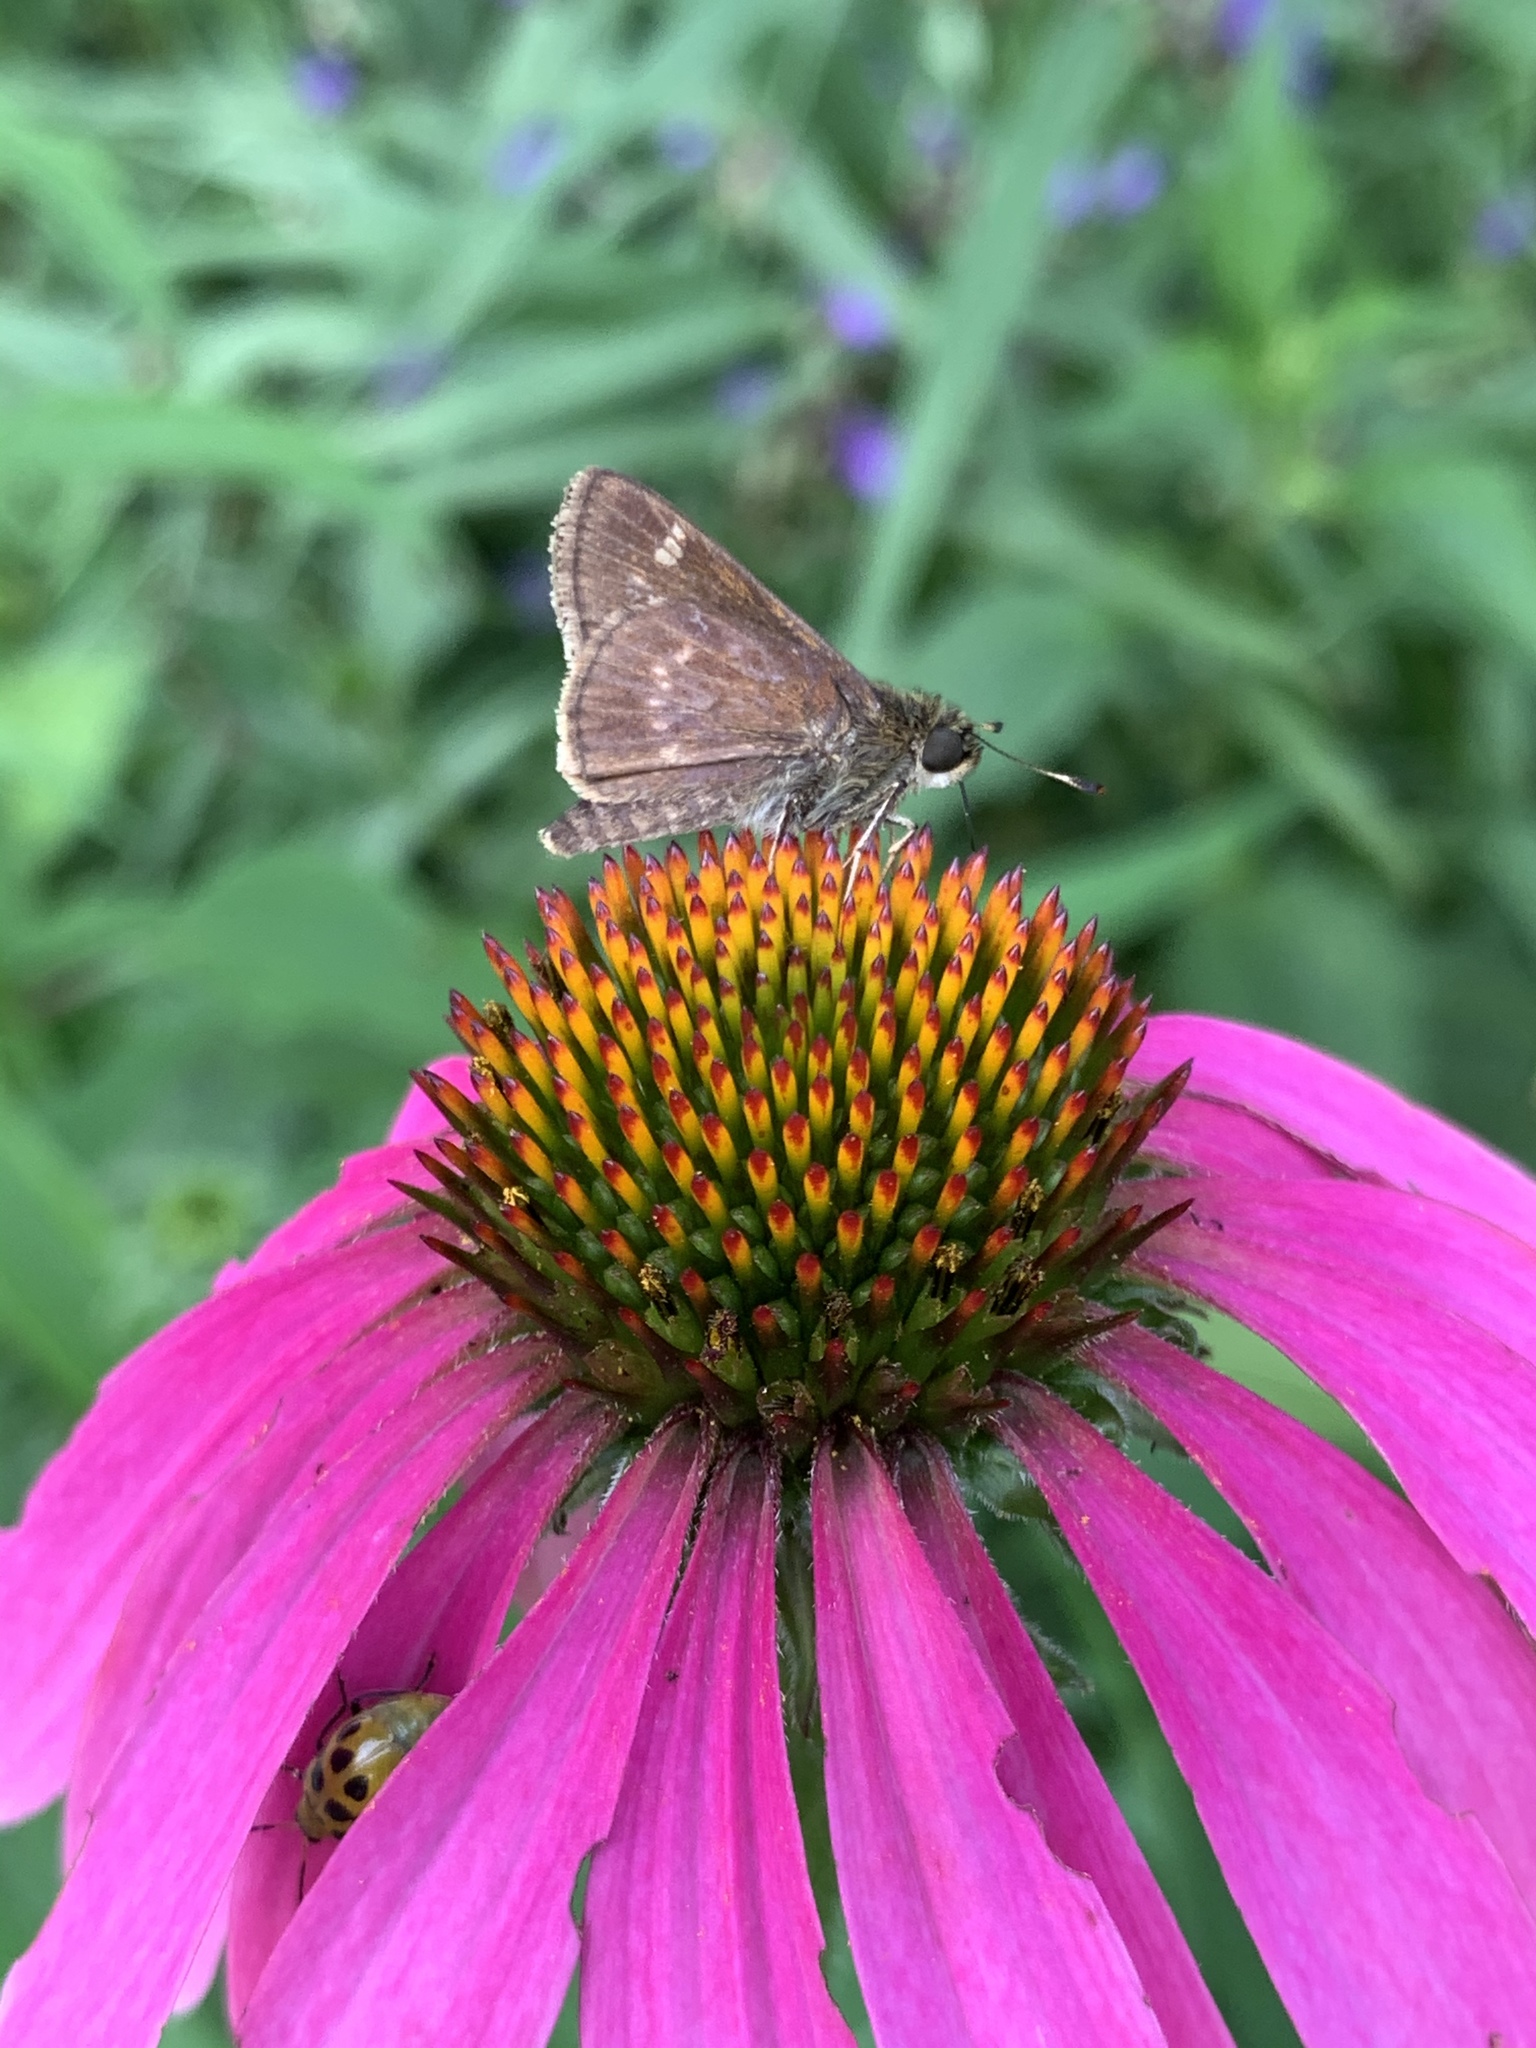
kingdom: Animalia
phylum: Arthropoda
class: Insecta
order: Lepidoptera
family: Hesperiidae
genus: Vernia
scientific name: Vernia verna
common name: Little glassywing
